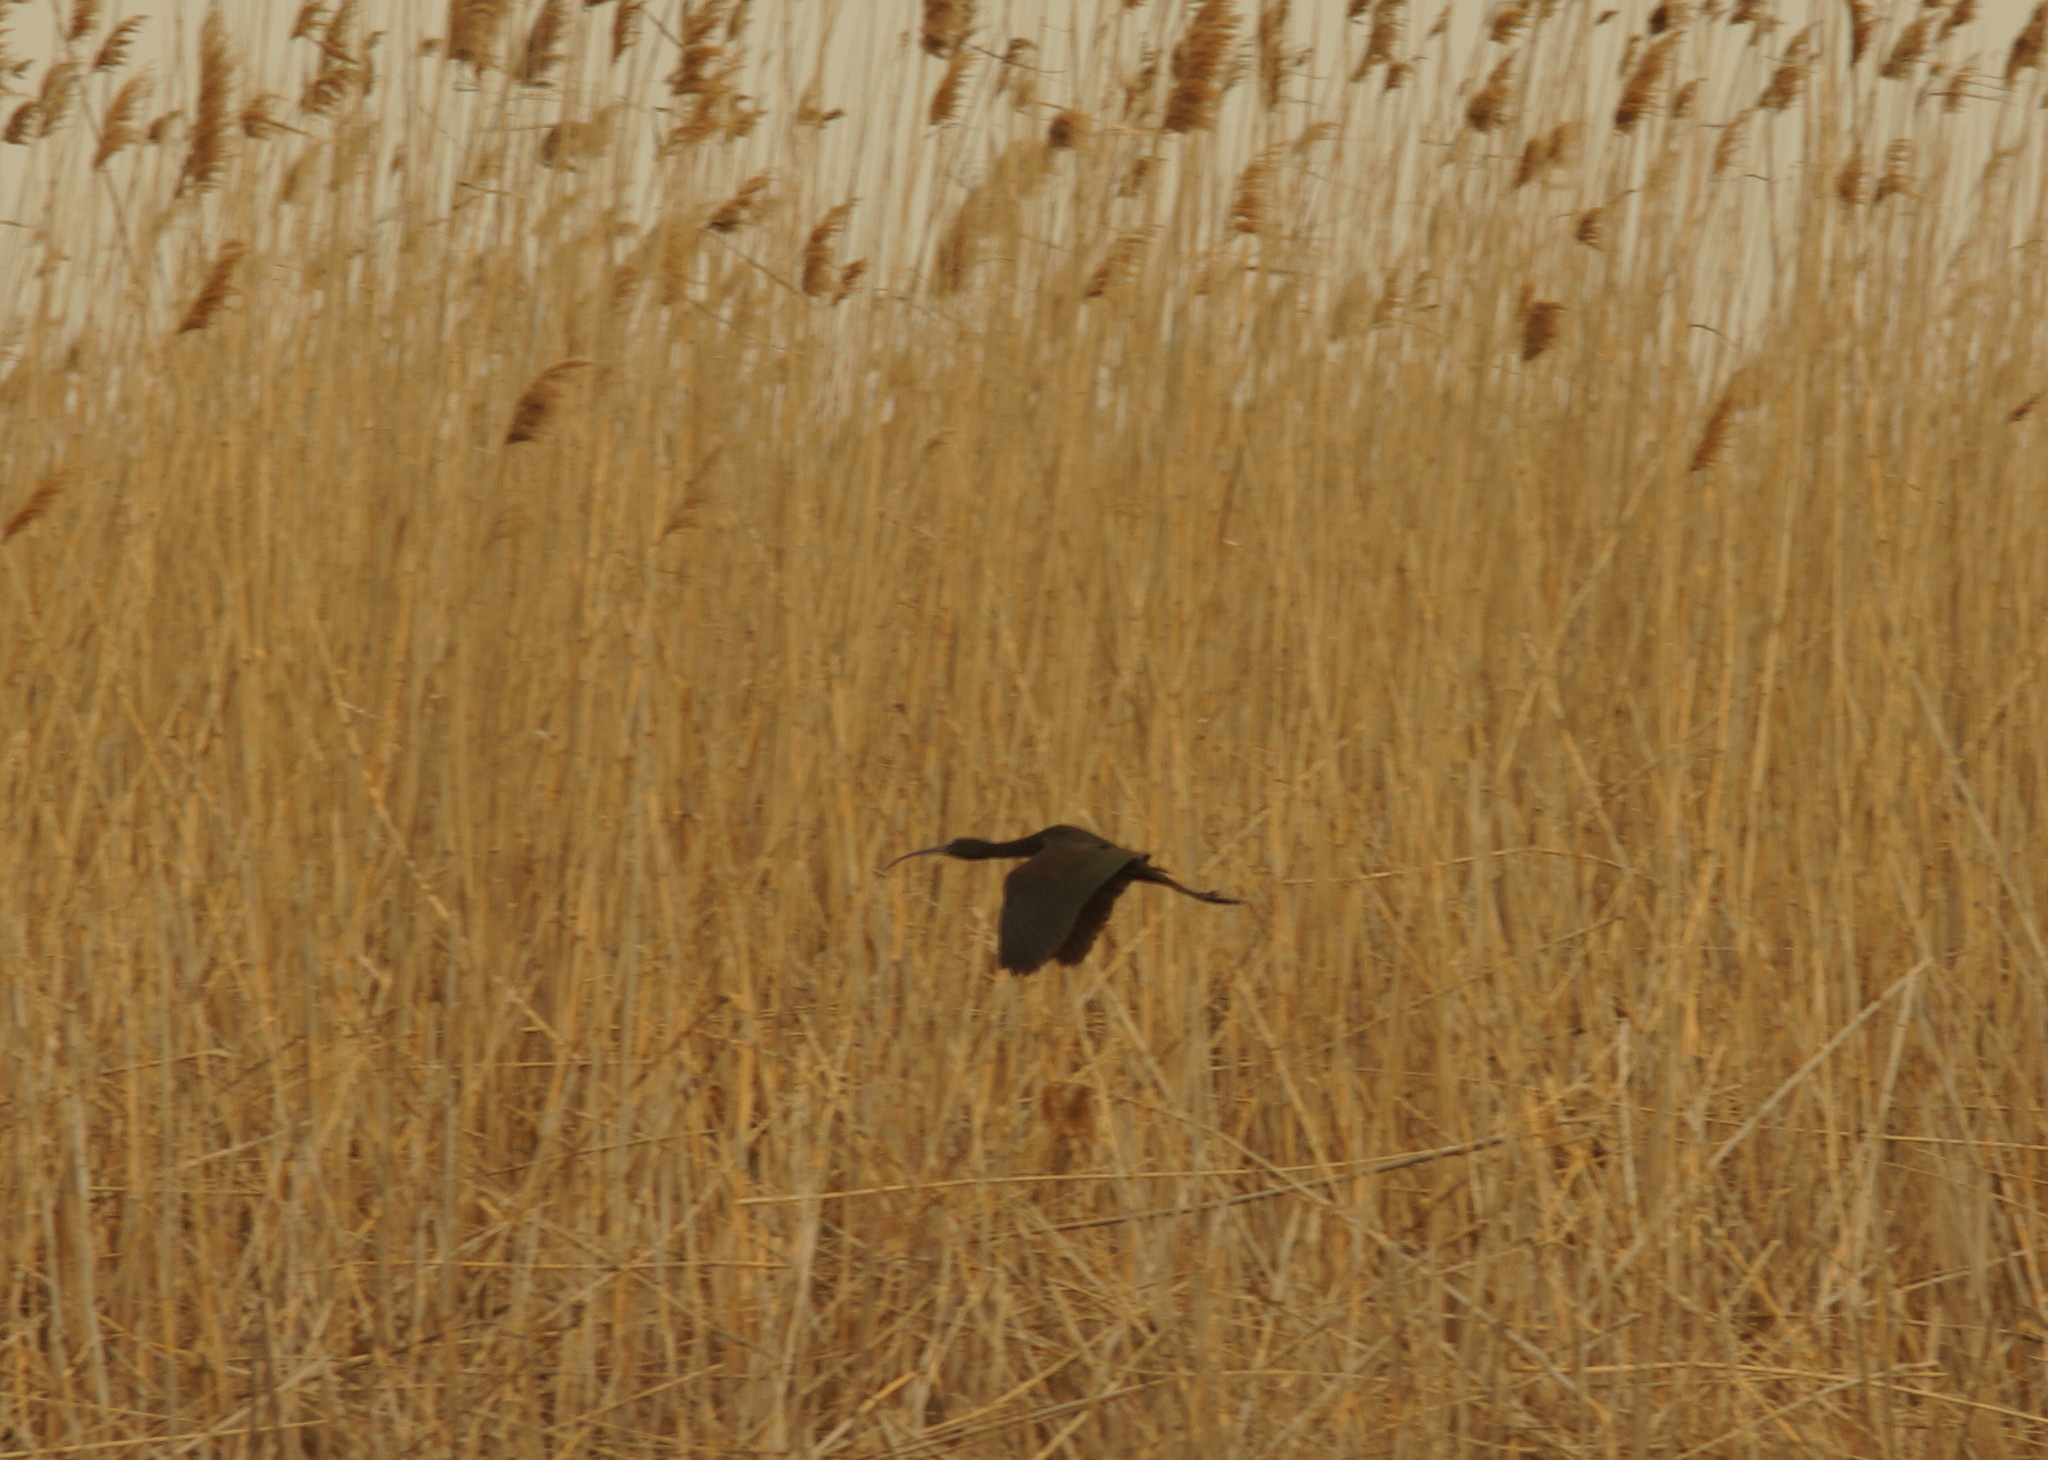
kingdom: Animalia
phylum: Chordata
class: Aves
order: Pelecaniformes
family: Threskiornithidae
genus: Plegadis
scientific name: Plegadis falcinellus
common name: Glossy ibis
